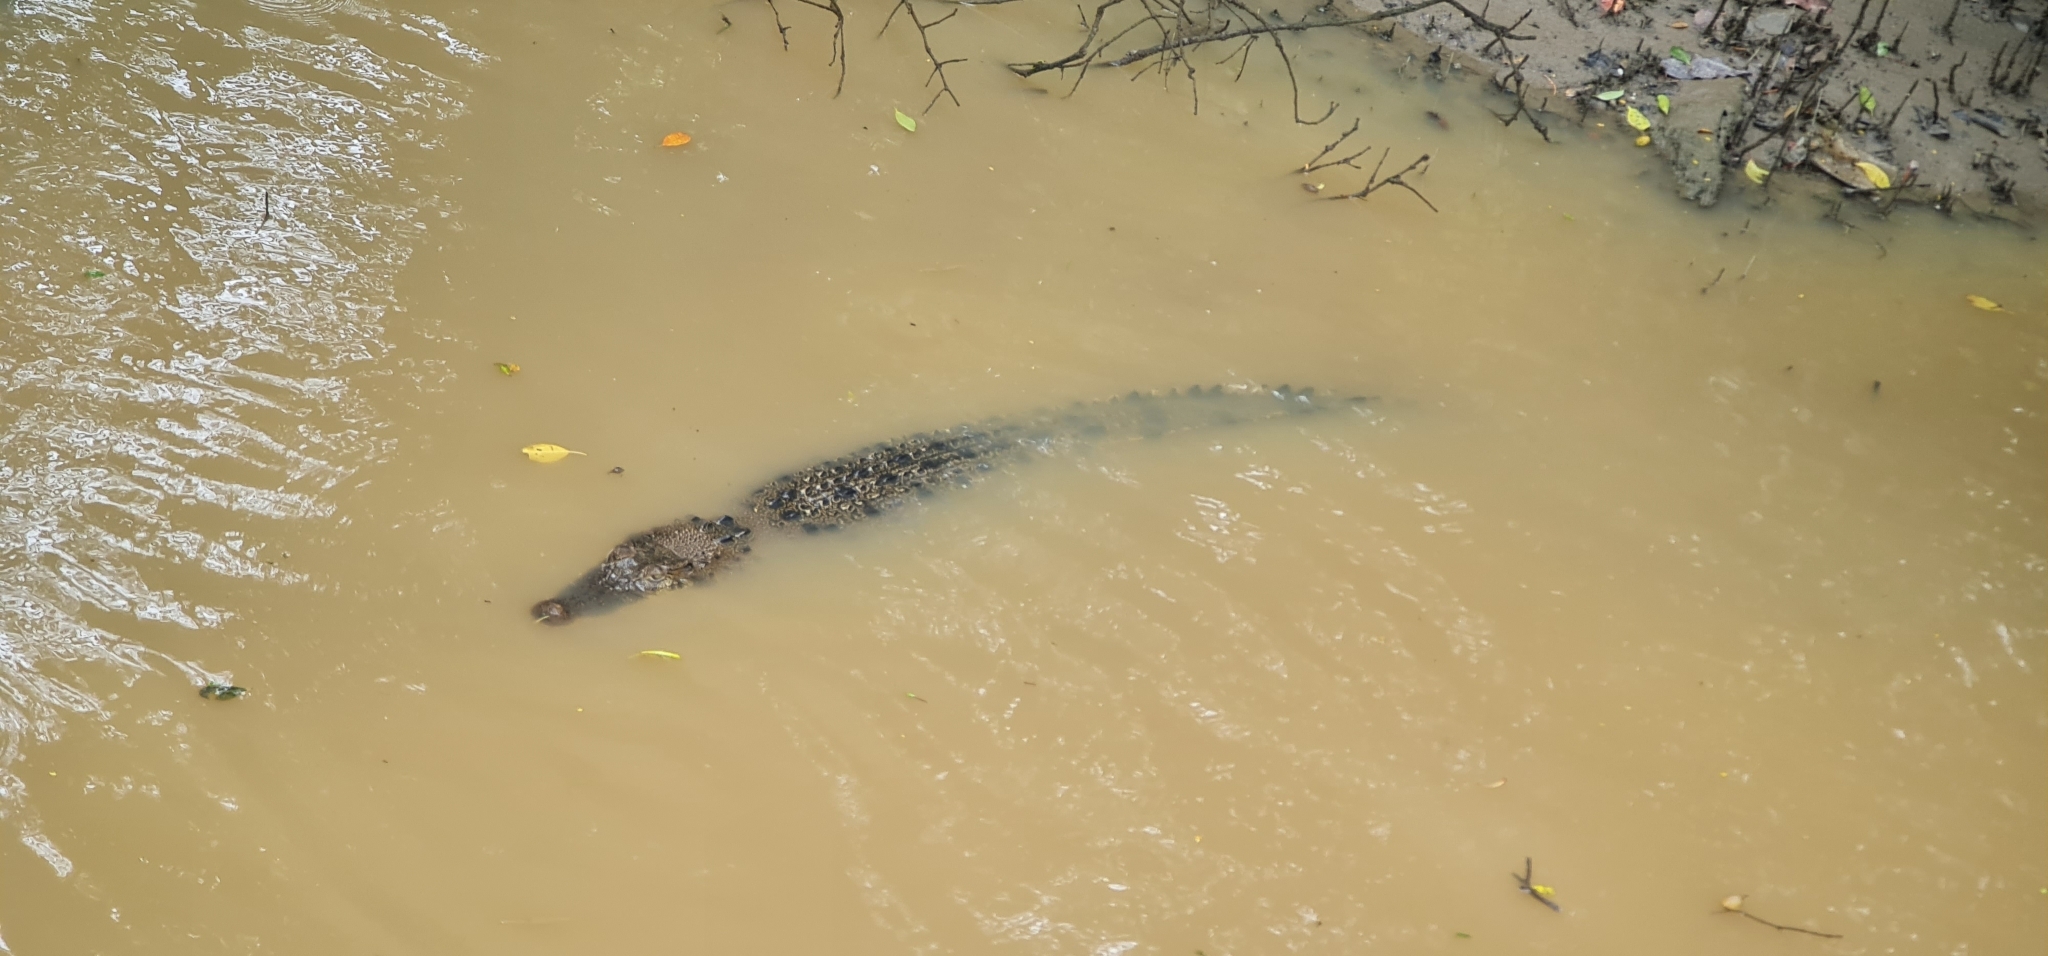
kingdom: Animalia
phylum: Chordata
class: Crocodylia
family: Crocodylidae
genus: Crocodylus
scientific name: Crocodylus porosus
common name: Saltwater crocodile
